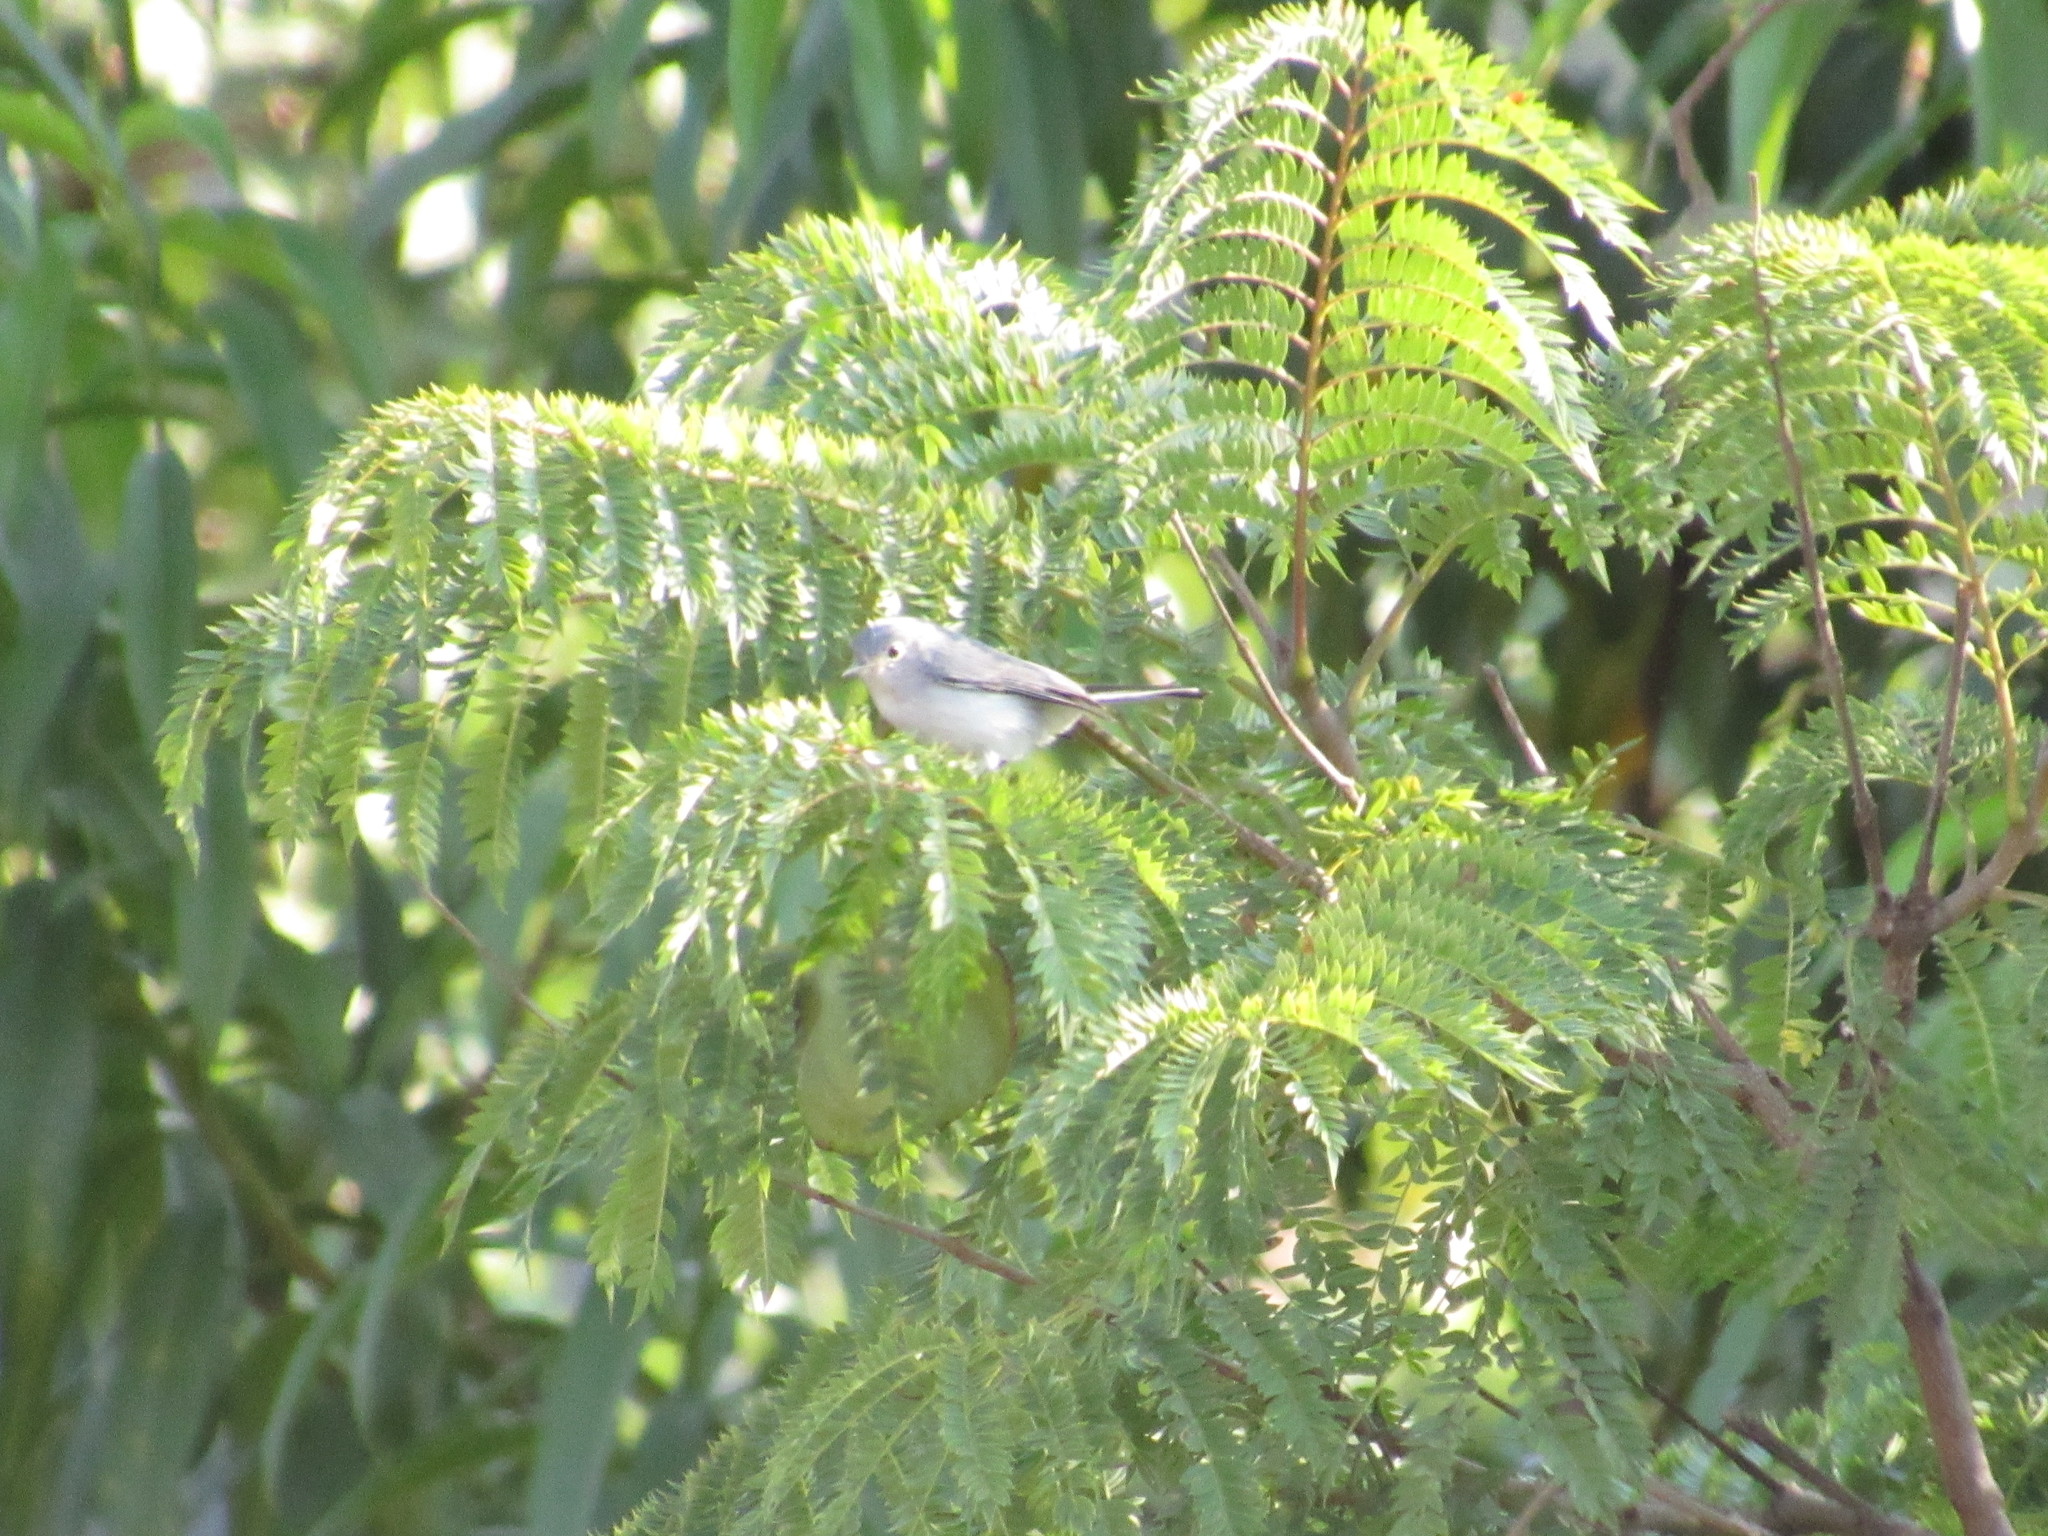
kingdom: Animalia
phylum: Chordata
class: Aves
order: Passeriformes
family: Polioptilidae
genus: Polioptila
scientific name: Polioptila caerulea
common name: Blue-gray gnatcatcher
